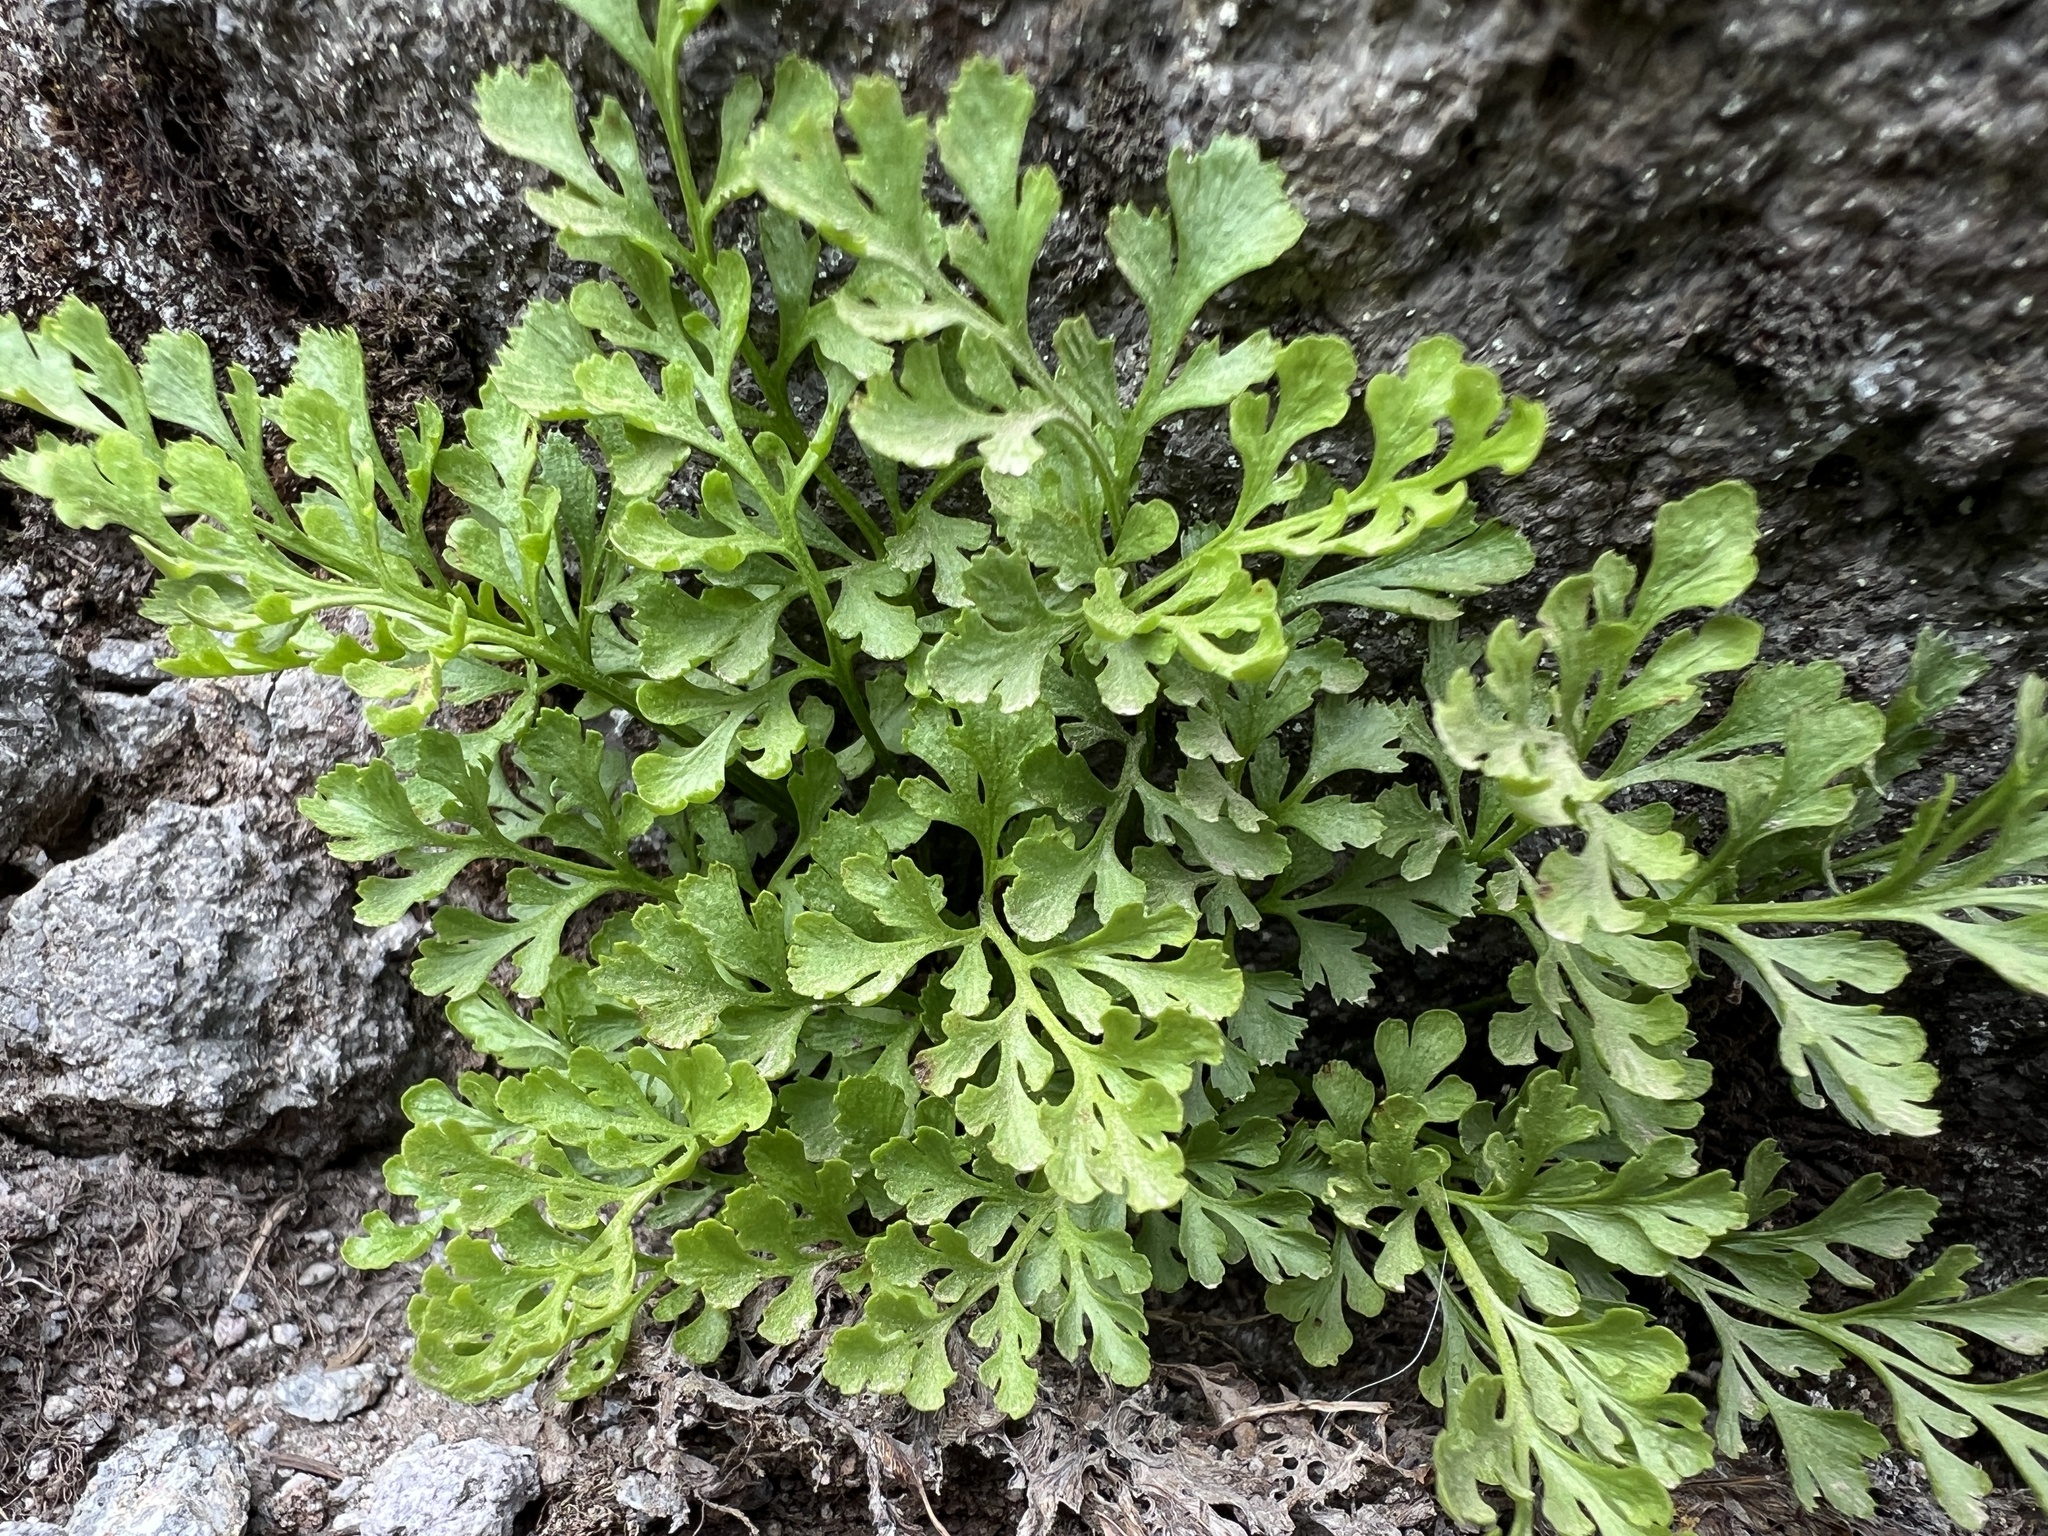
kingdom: Plantae
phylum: Tracheophyta
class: Polypodiopsida
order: Polypodiales
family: Pteridaceae
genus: Cryptogramma
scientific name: Cryptogramma cascadensis
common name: Cascade parsley fern
